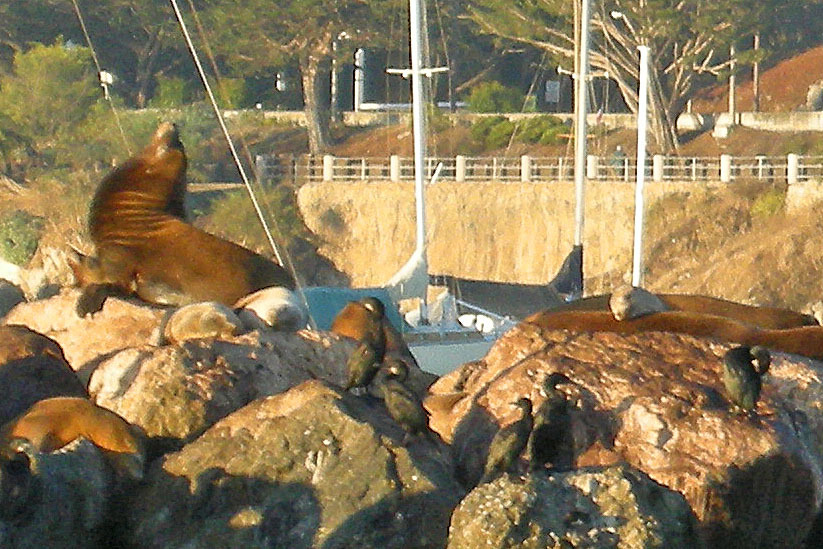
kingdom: Animalia
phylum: Chordata
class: Mammalia
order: Carnivora
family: Otariidae
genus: Zalophus
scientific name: Zalophus californianus
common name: California sea lion
